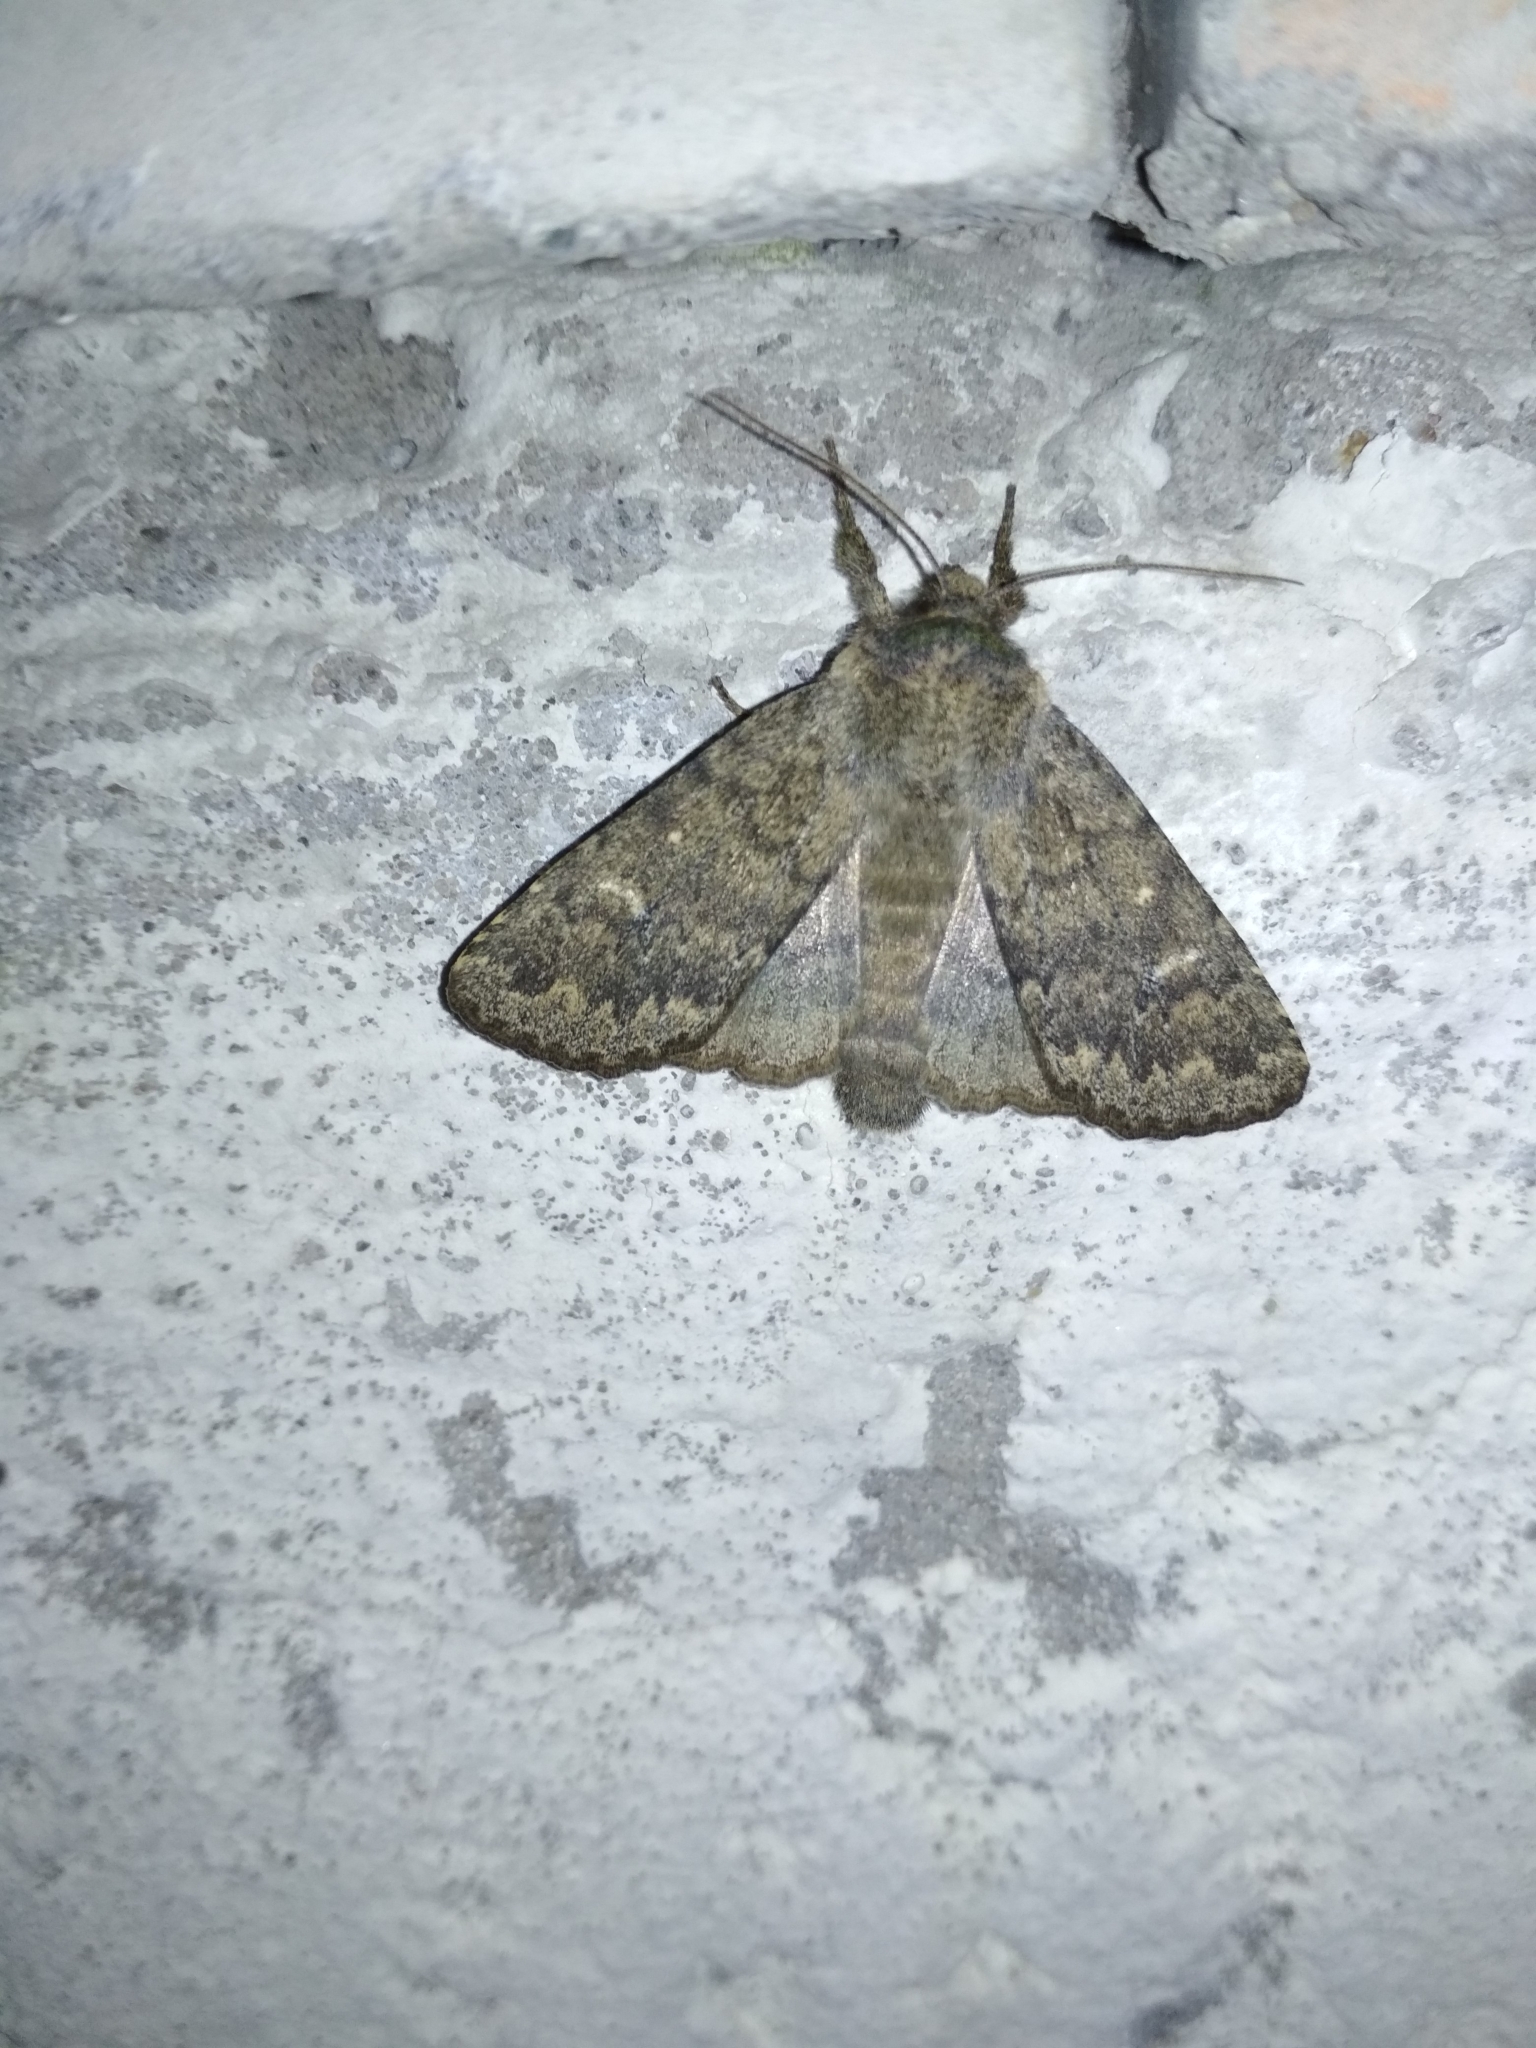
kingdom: Animalia
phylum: Arthropoda
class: Insecta
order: Lepidoptera
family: Noctuidae
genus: Dasypolia
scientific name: Dasypolia templi
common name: Brindled ochre
